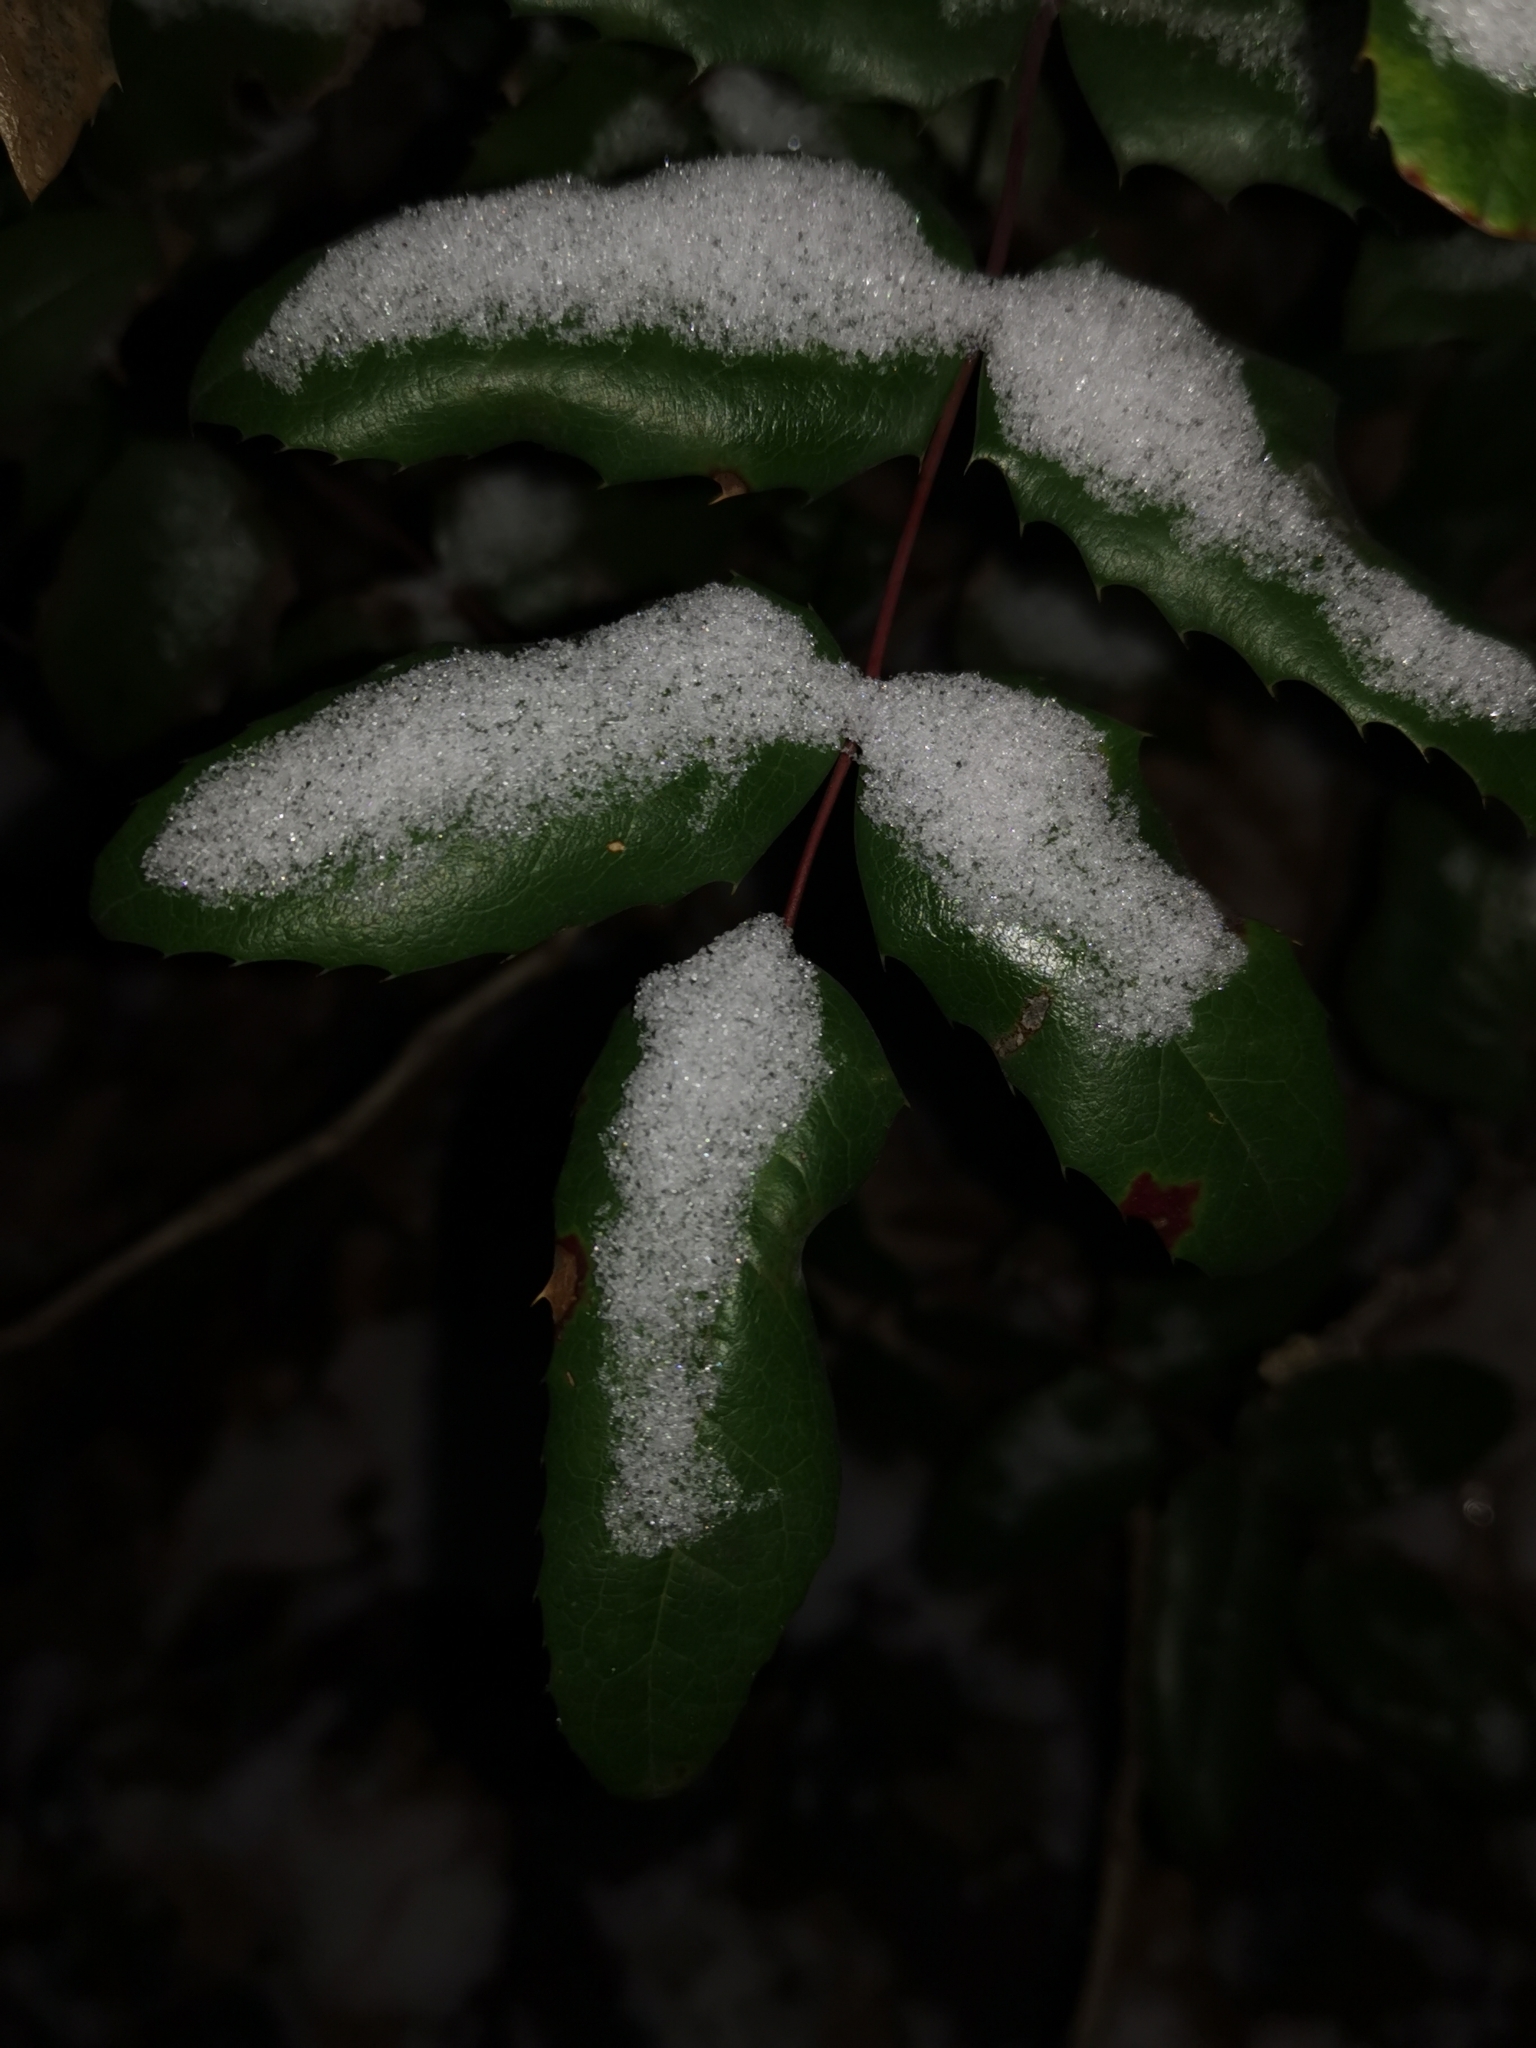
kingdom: Plantae
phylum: Tracheophyta
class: Magnoliopsida
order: Ranunculales
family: Berberidaceae
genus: Mahonia
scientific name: Mahonia aquifolium
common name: Oregon-grape
